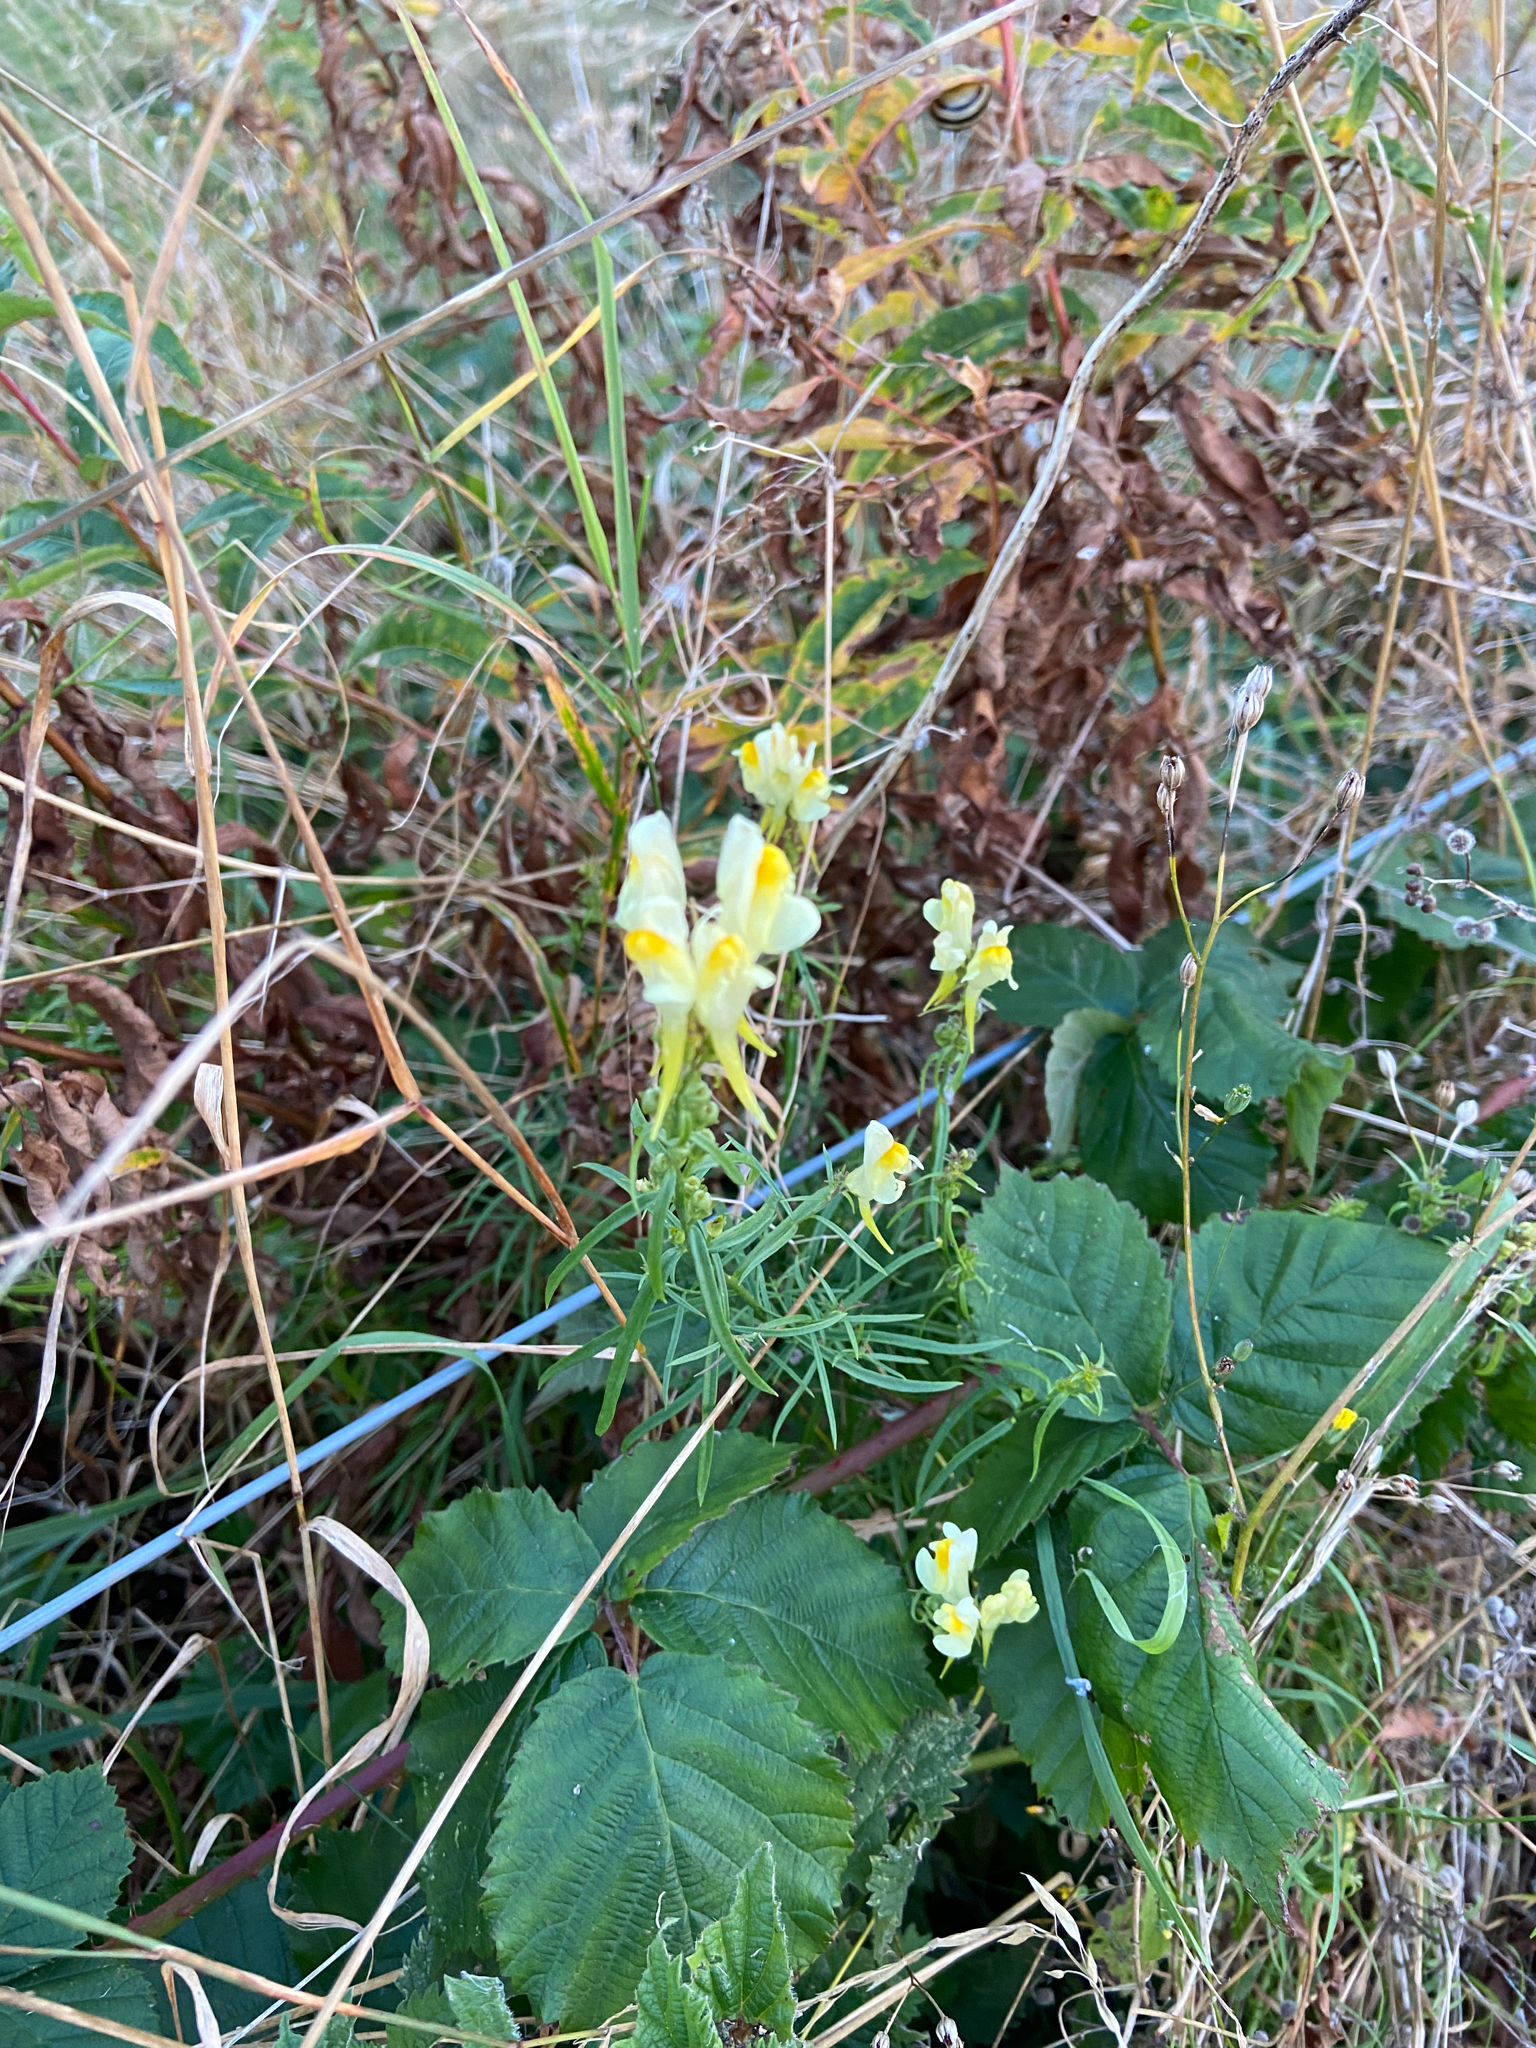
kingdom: Plantae
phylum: Tracheophyta
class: Magnoliopsida
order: Lamiales
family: Plantaginaceae
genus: Linaria
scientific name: Linaria vulgaris
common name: Butter and eggs
